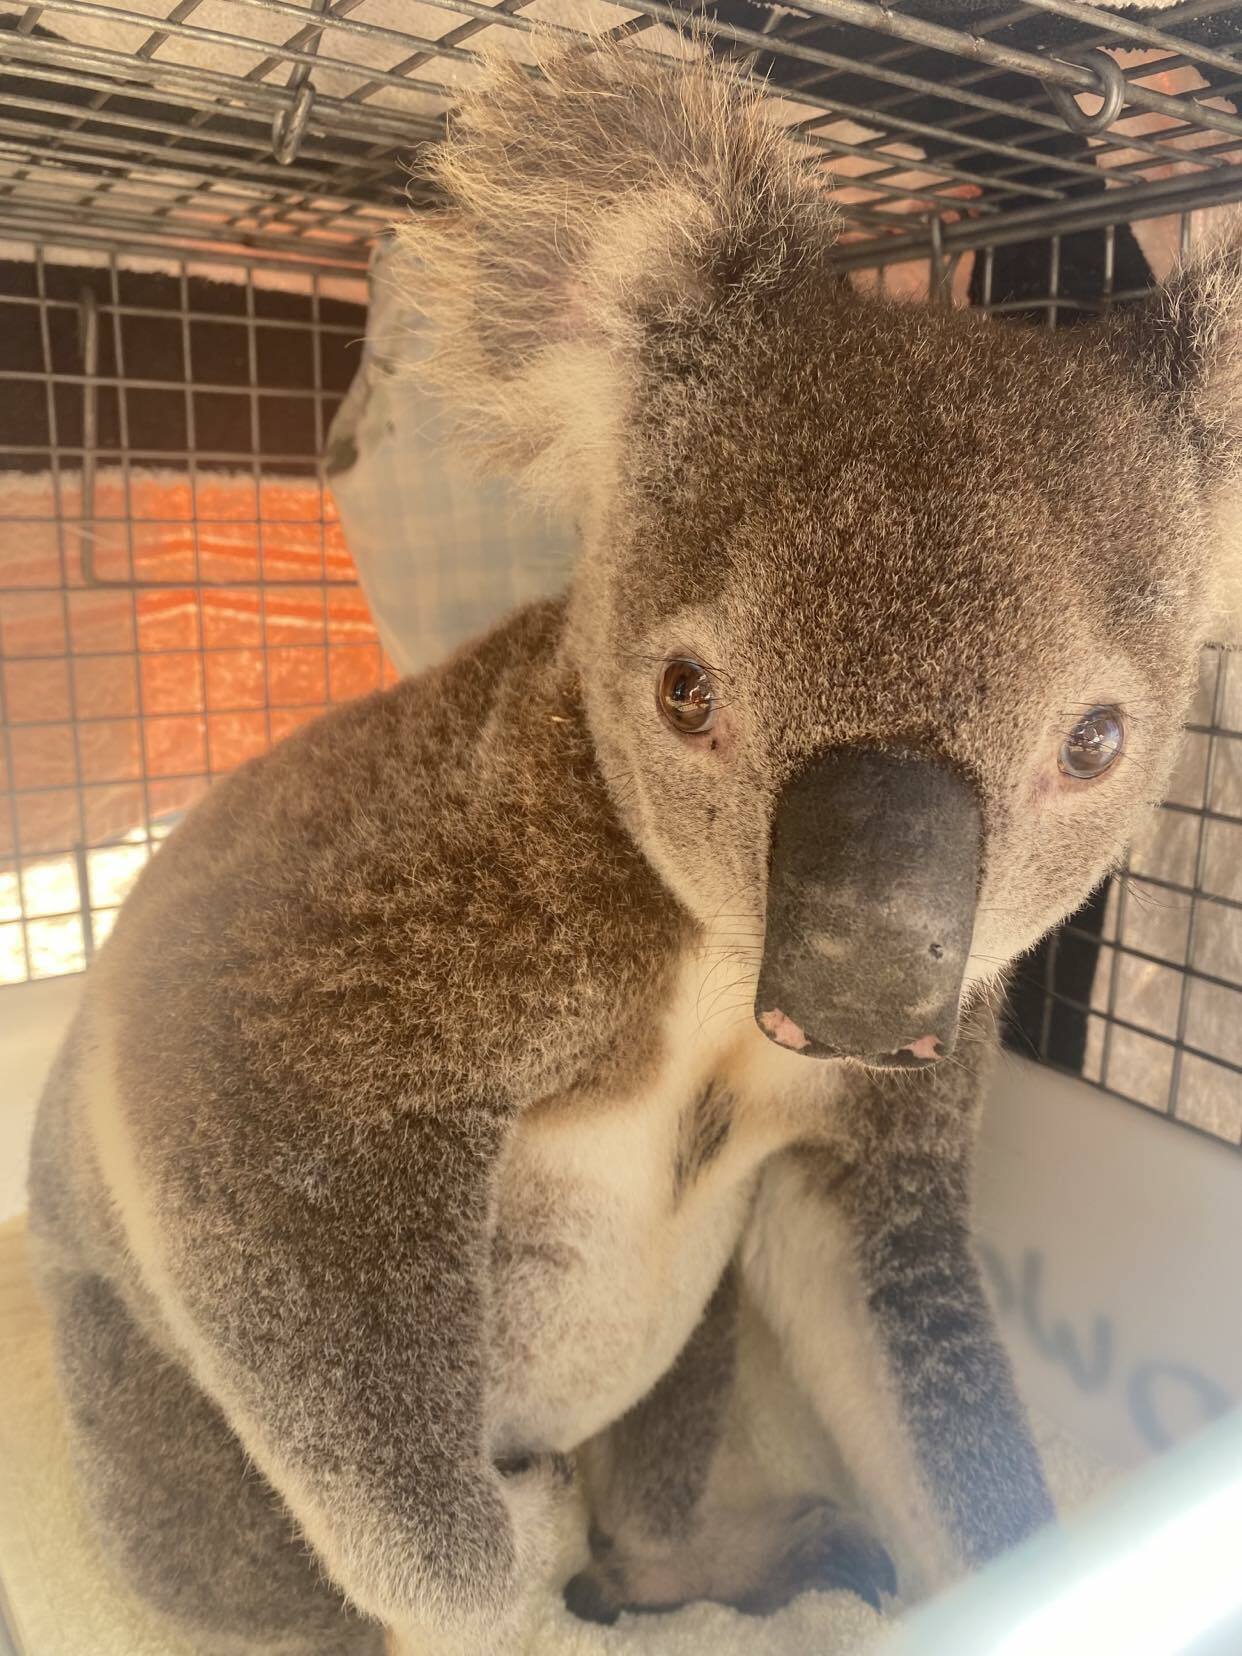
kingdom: Animalia
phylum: Chordata
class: Mammalia
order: Diprotodontia
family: Phascolarctidae
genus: Phascolarctos
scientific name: Phascolarctos cinereus
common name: Koala
